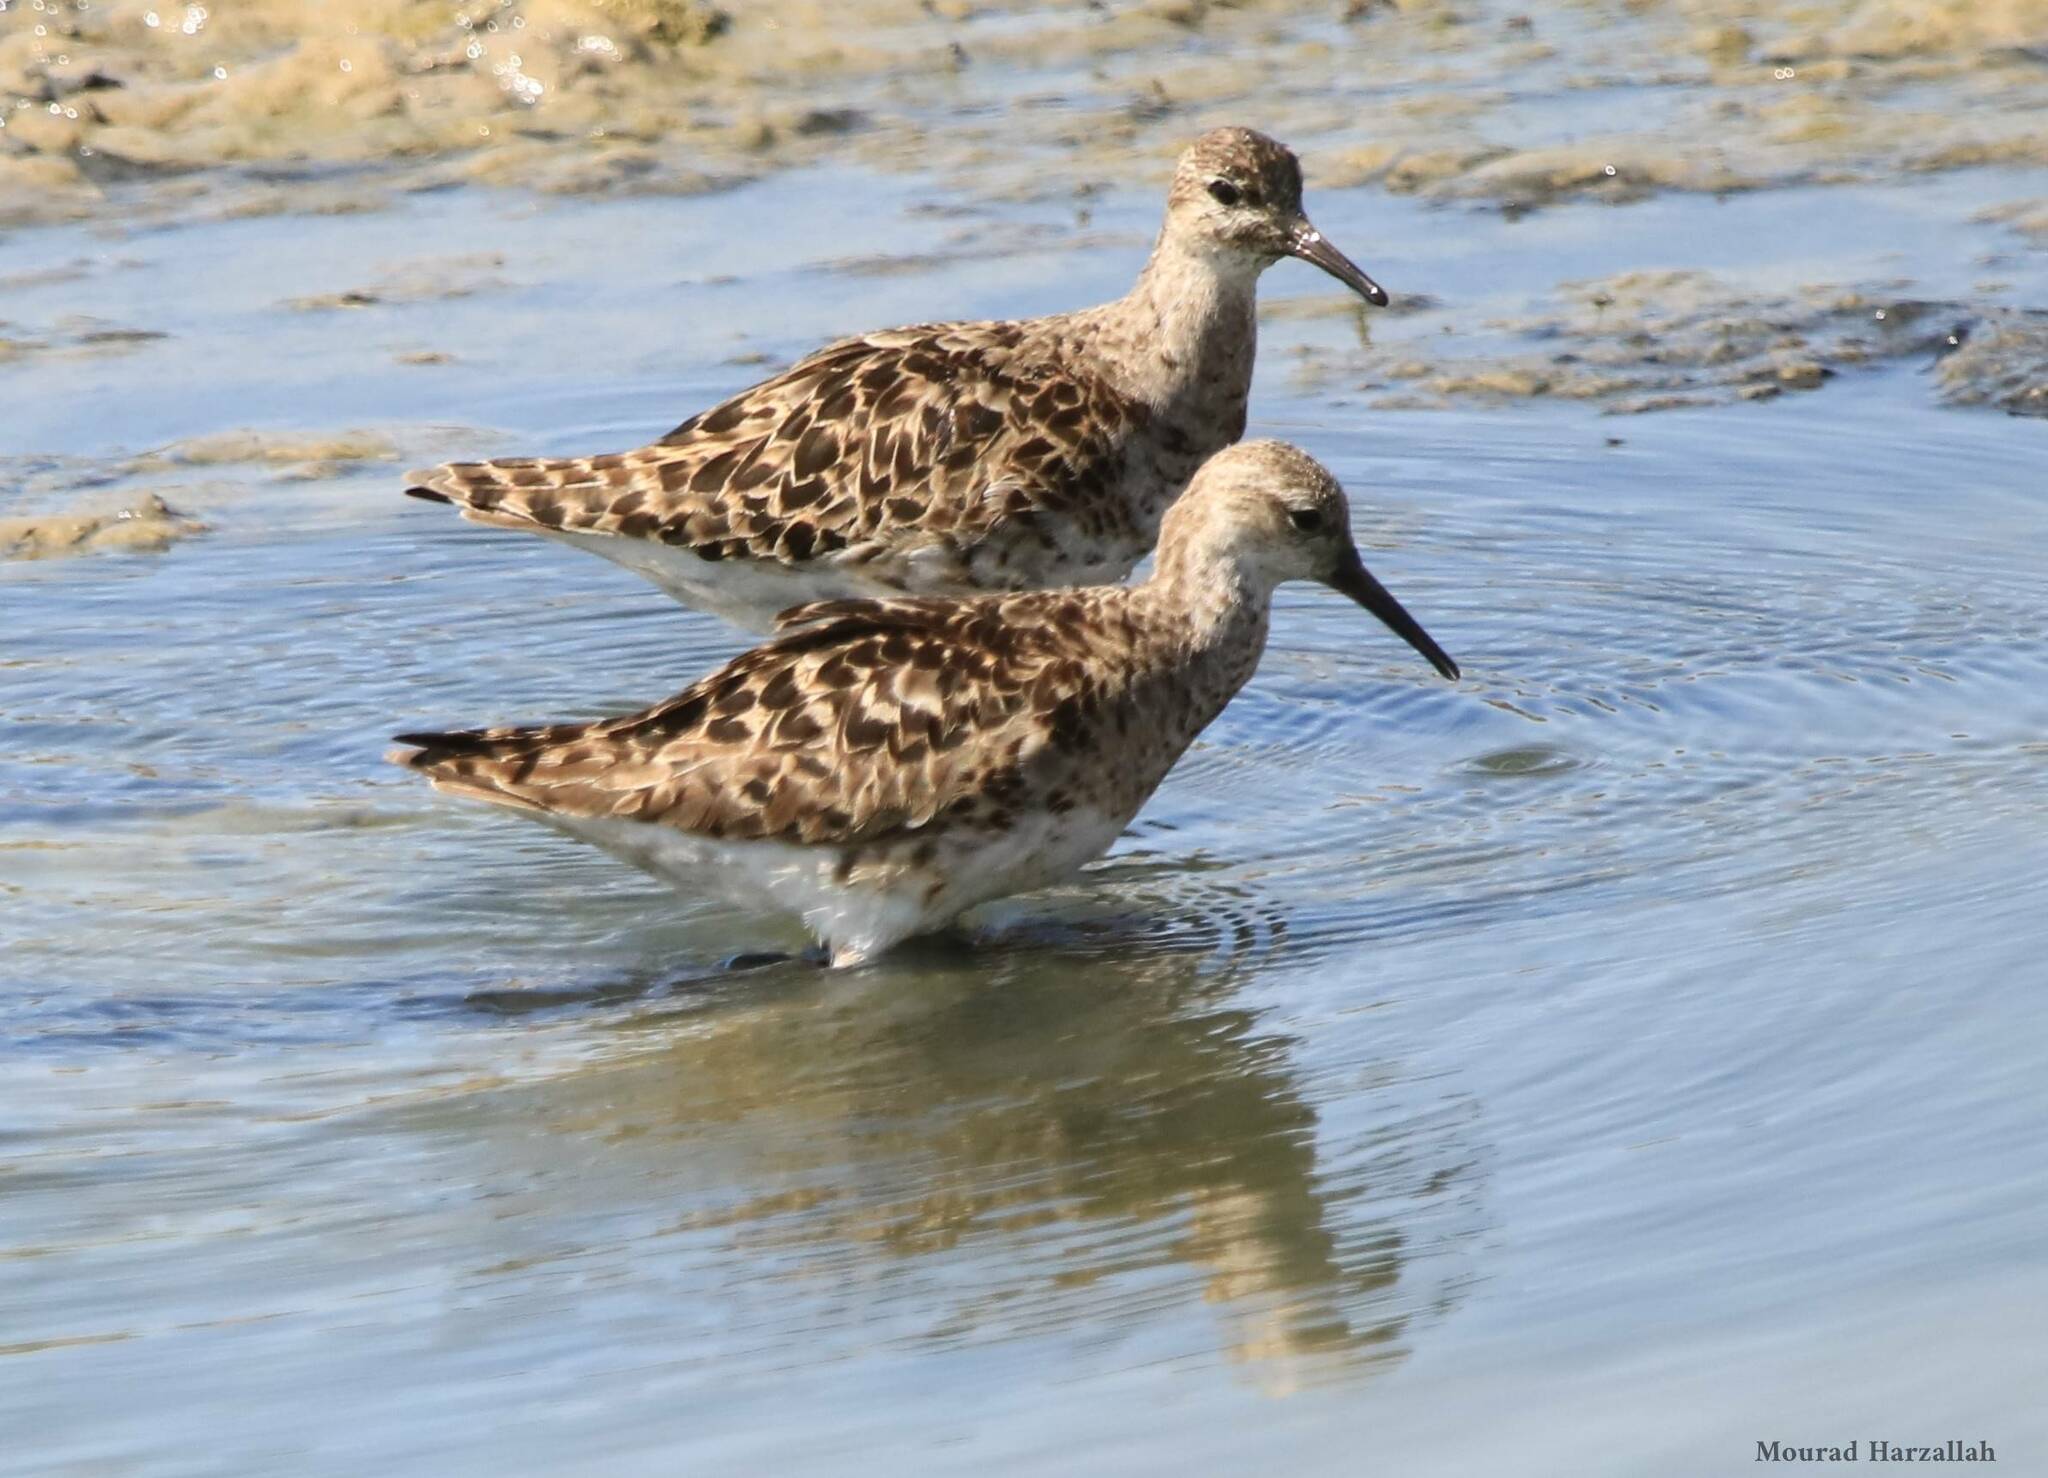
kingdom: Animalia
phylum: Chordata
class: Aves
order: Charadriiformes
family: Scolopacidae
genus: Calidris
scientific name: Calidris pugnax
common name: Ruff
